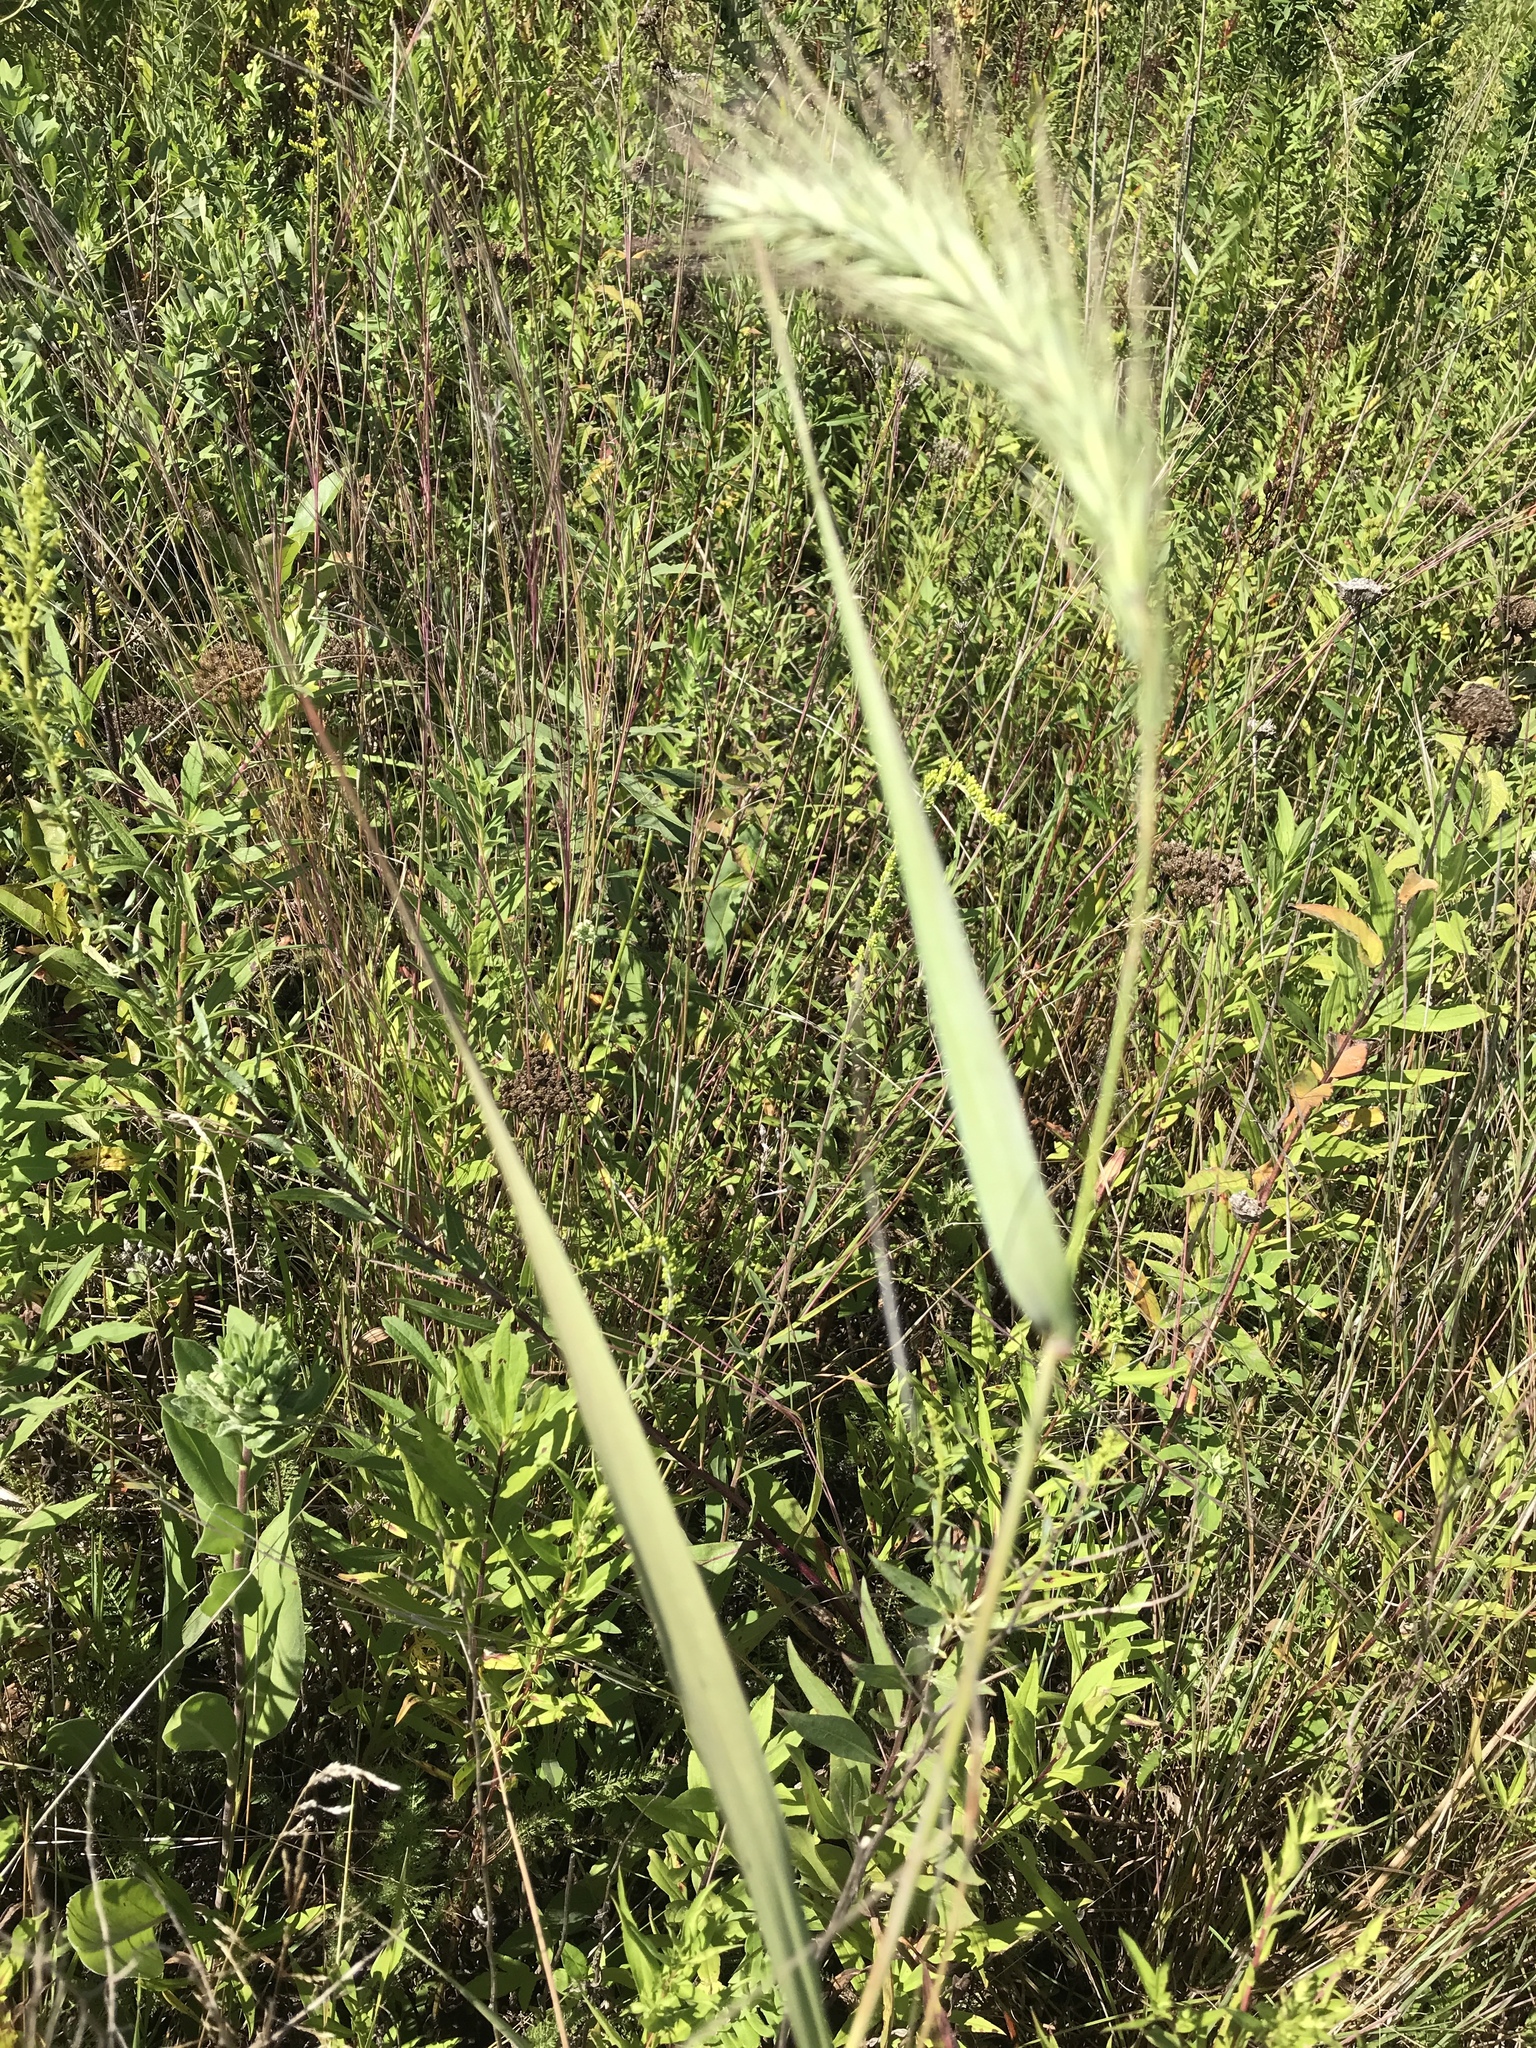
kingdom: Plantae
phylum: Tracheophyta
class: Liliopsida
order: Poales
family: Poaceae
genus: Elymus
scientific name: Elymus canadensis
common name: Canada wild rye
